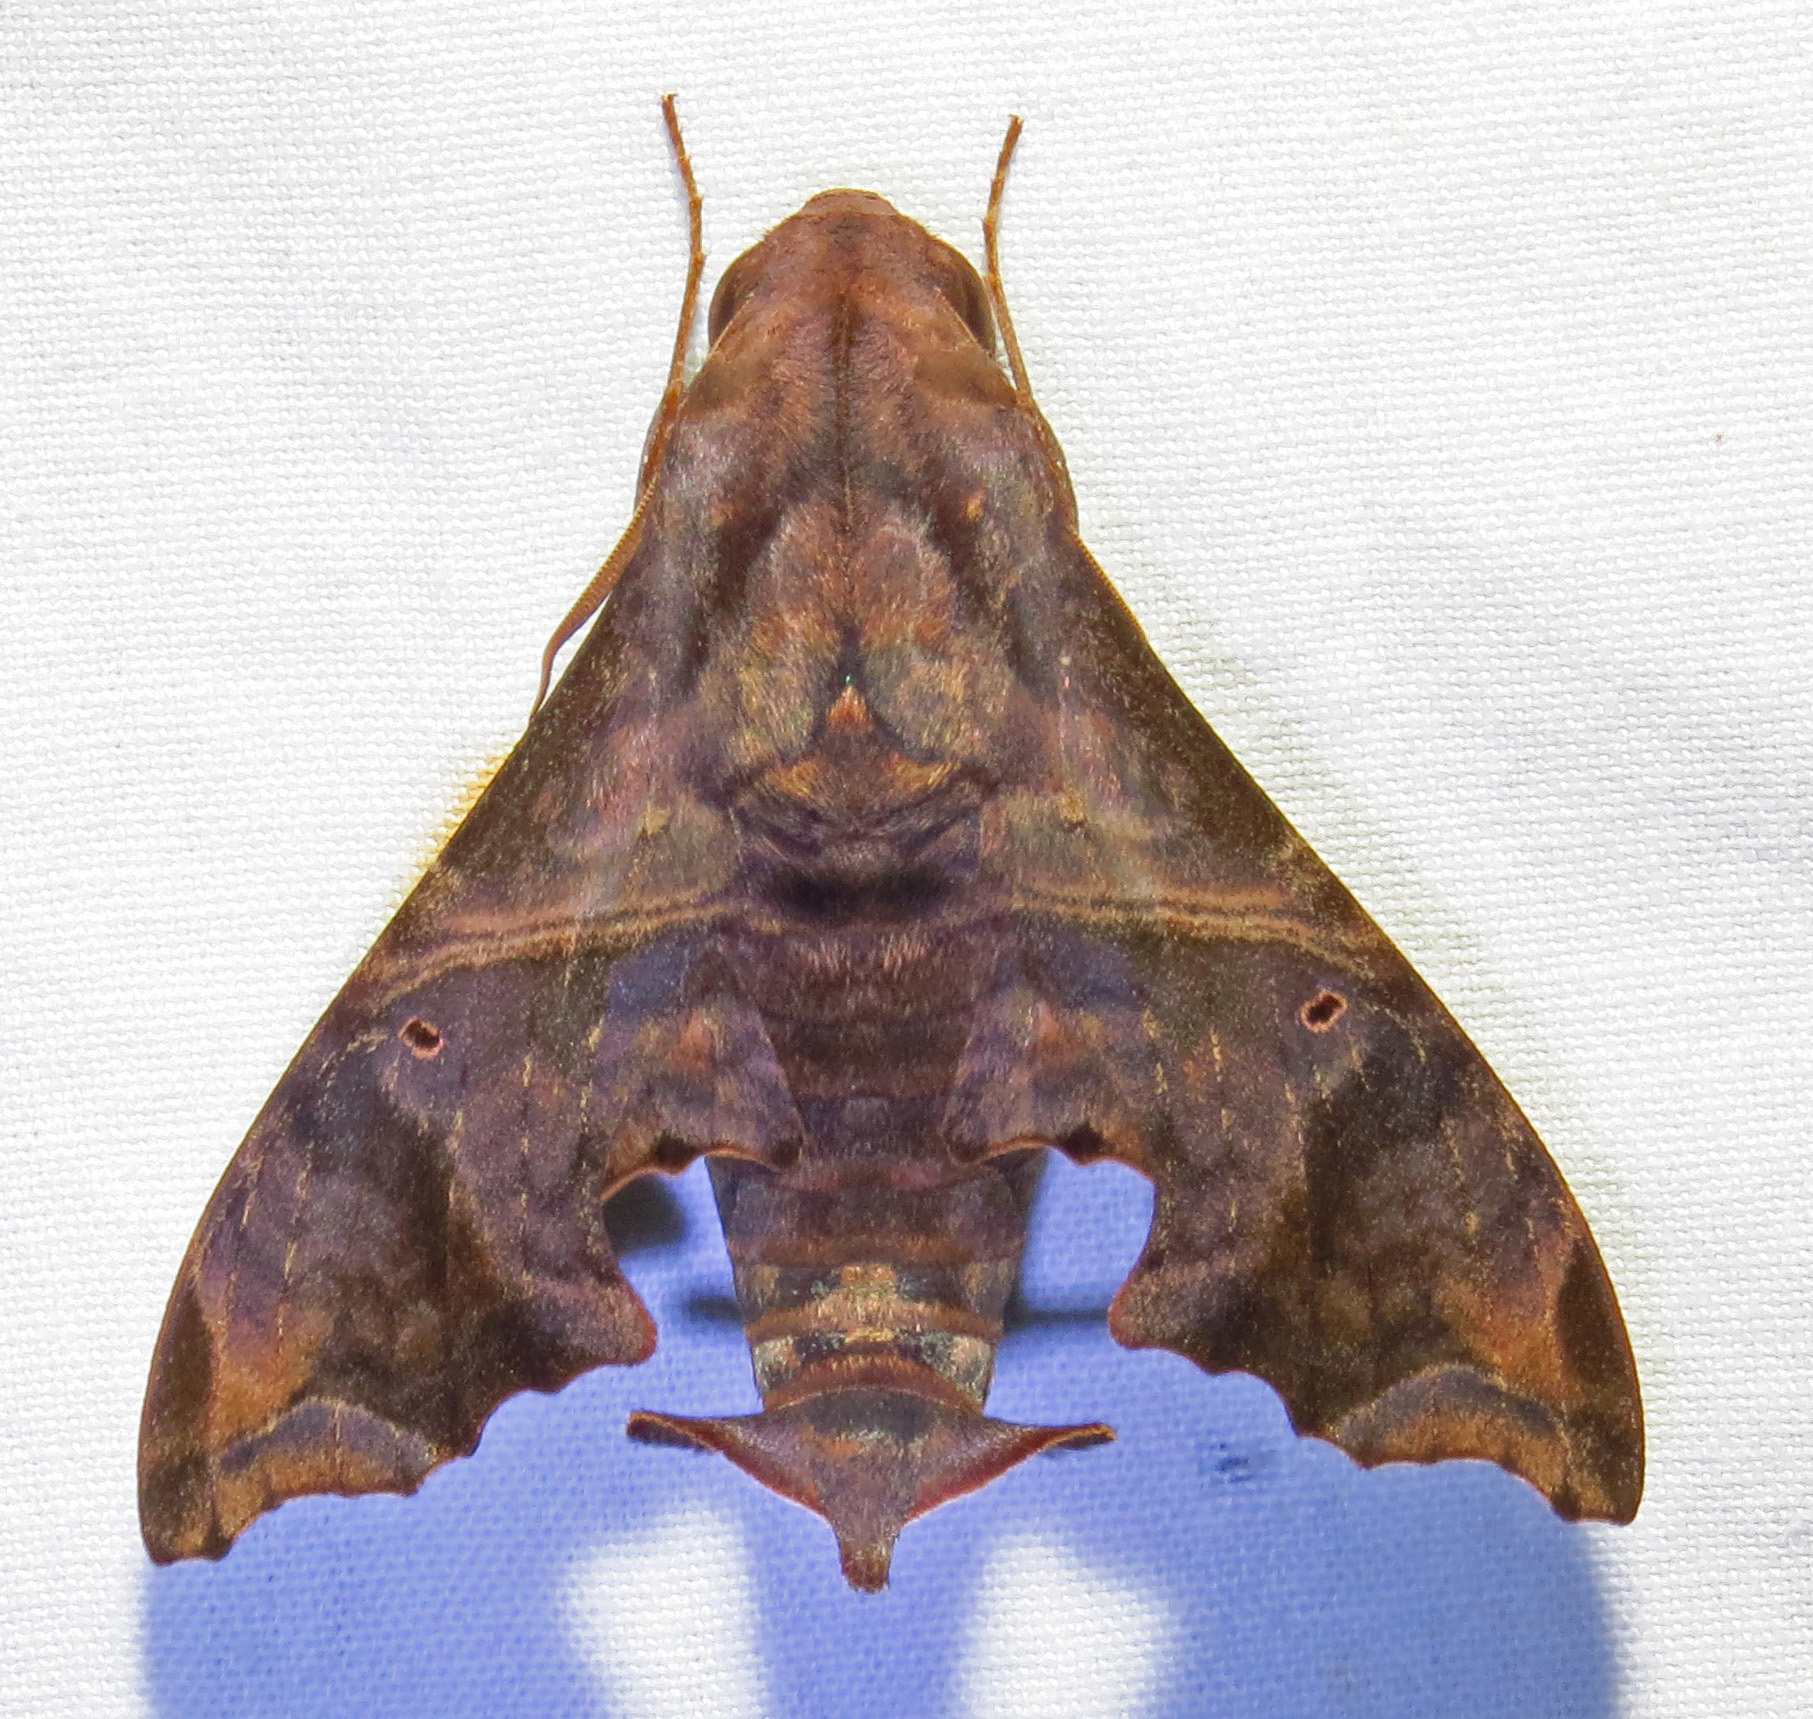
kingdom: Animalia
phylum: Arthropoda
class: Insecta
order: Lepidoptera
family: Sphingidae
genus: Enyo
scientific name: Enyo lugubris
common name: Mournful sphinx
